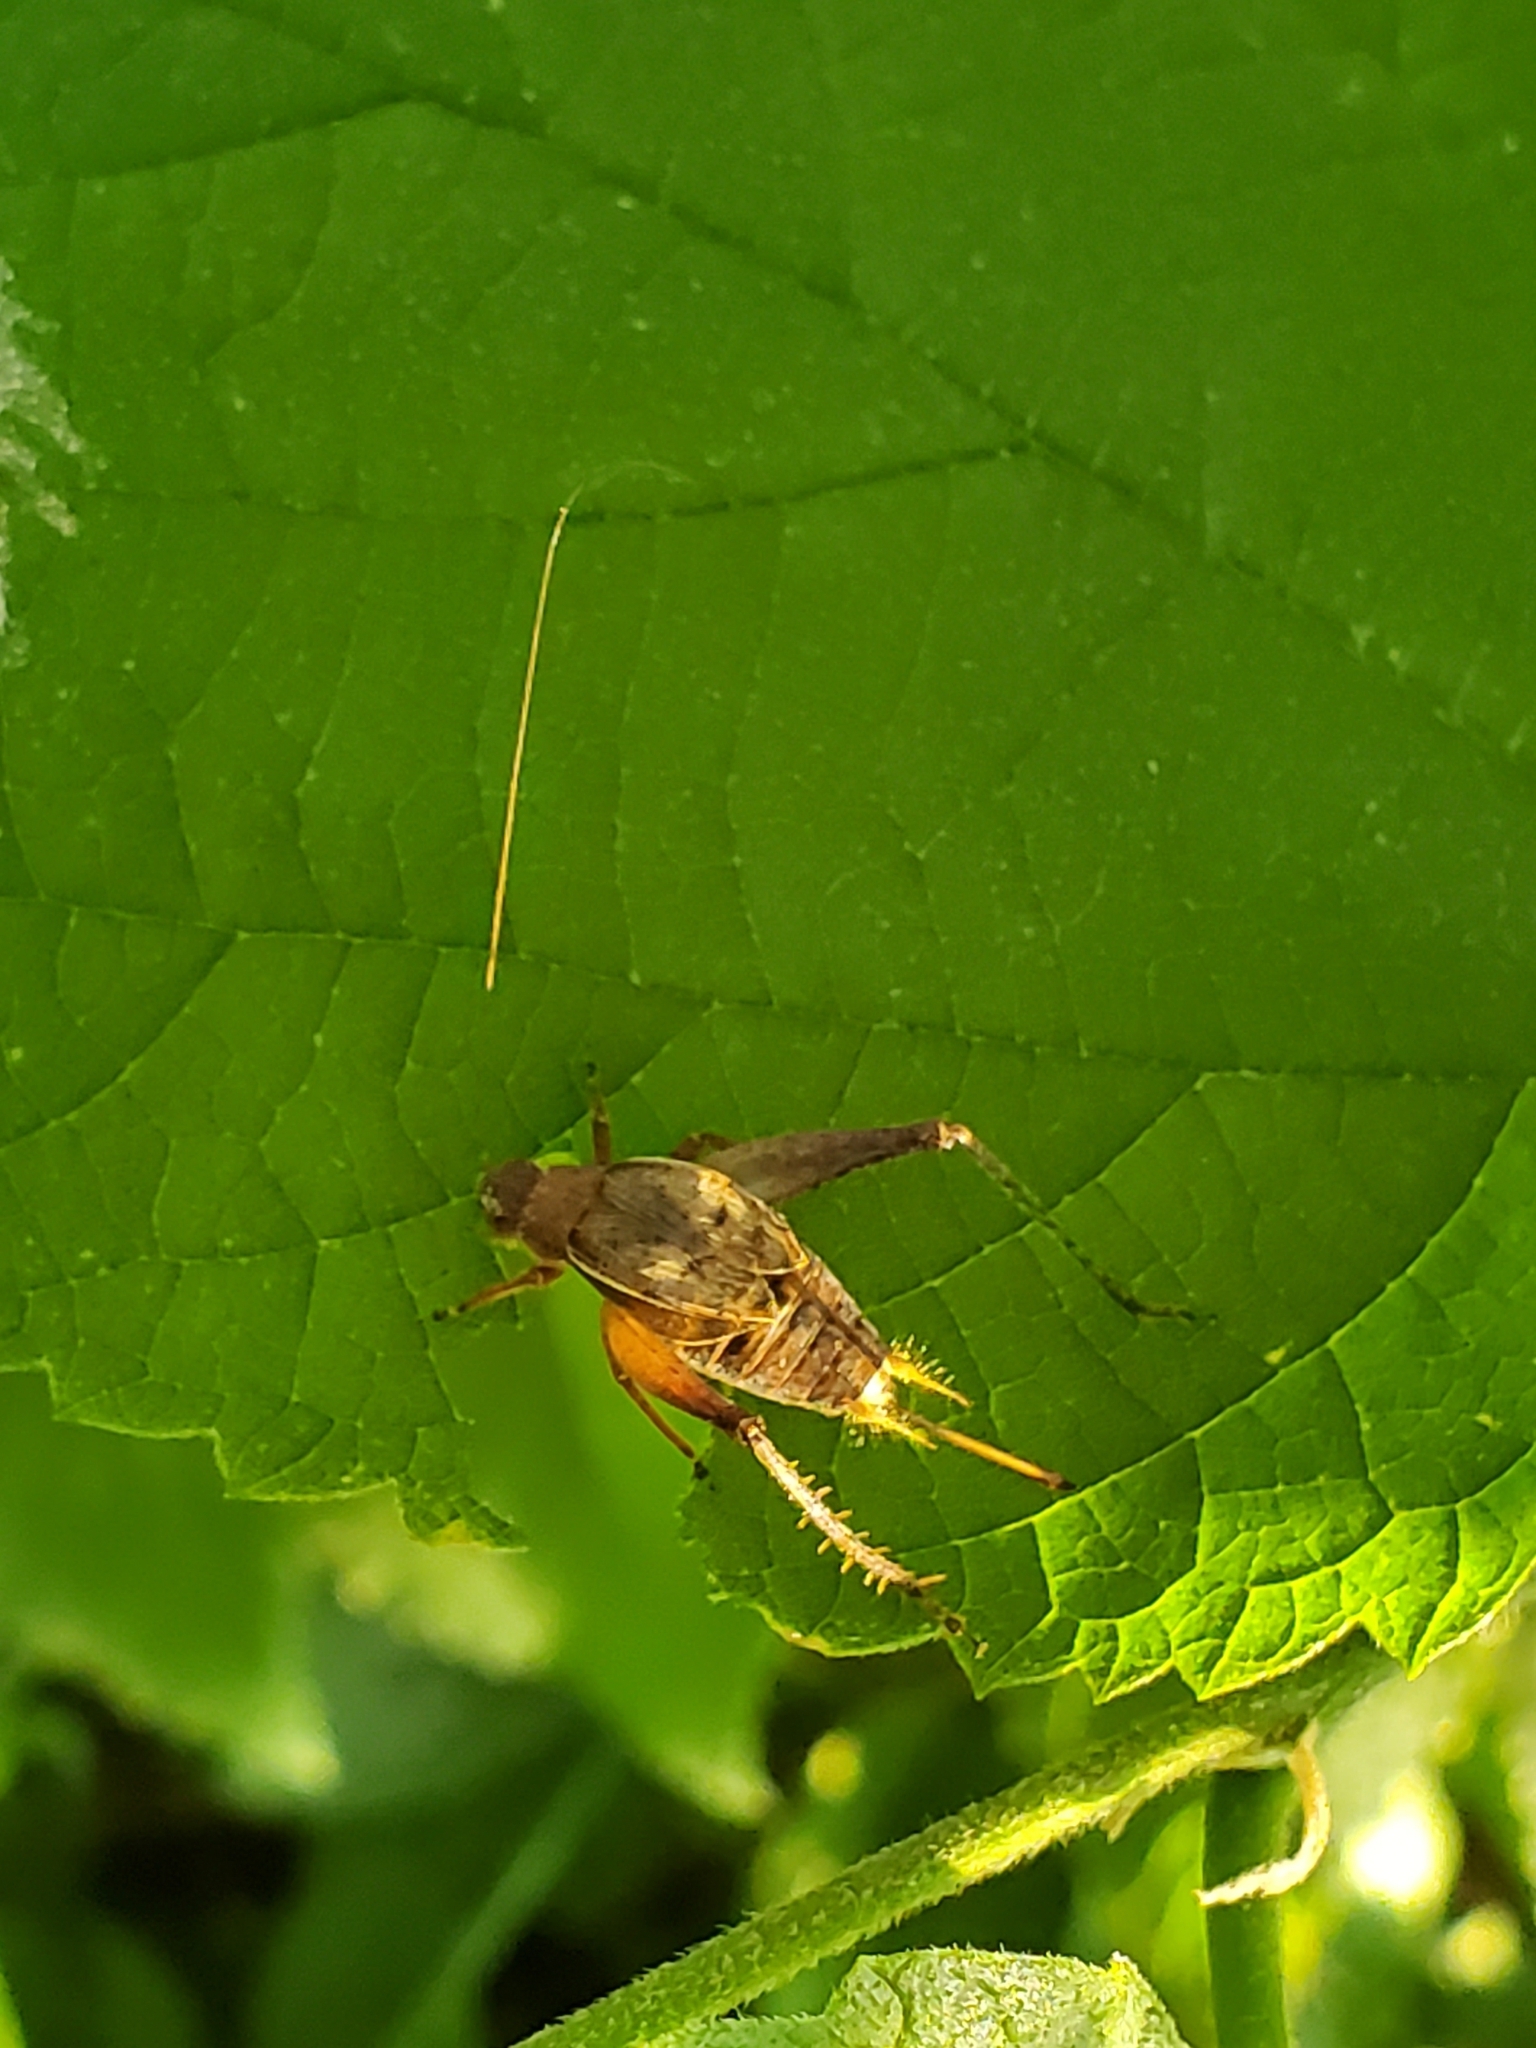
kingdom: Animalia
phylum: Arthropoda
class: Insecta
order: Orthoptera
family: Gryllidae
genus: Hapithus
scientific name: Hapithus agitator
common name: Restless bush cricket
